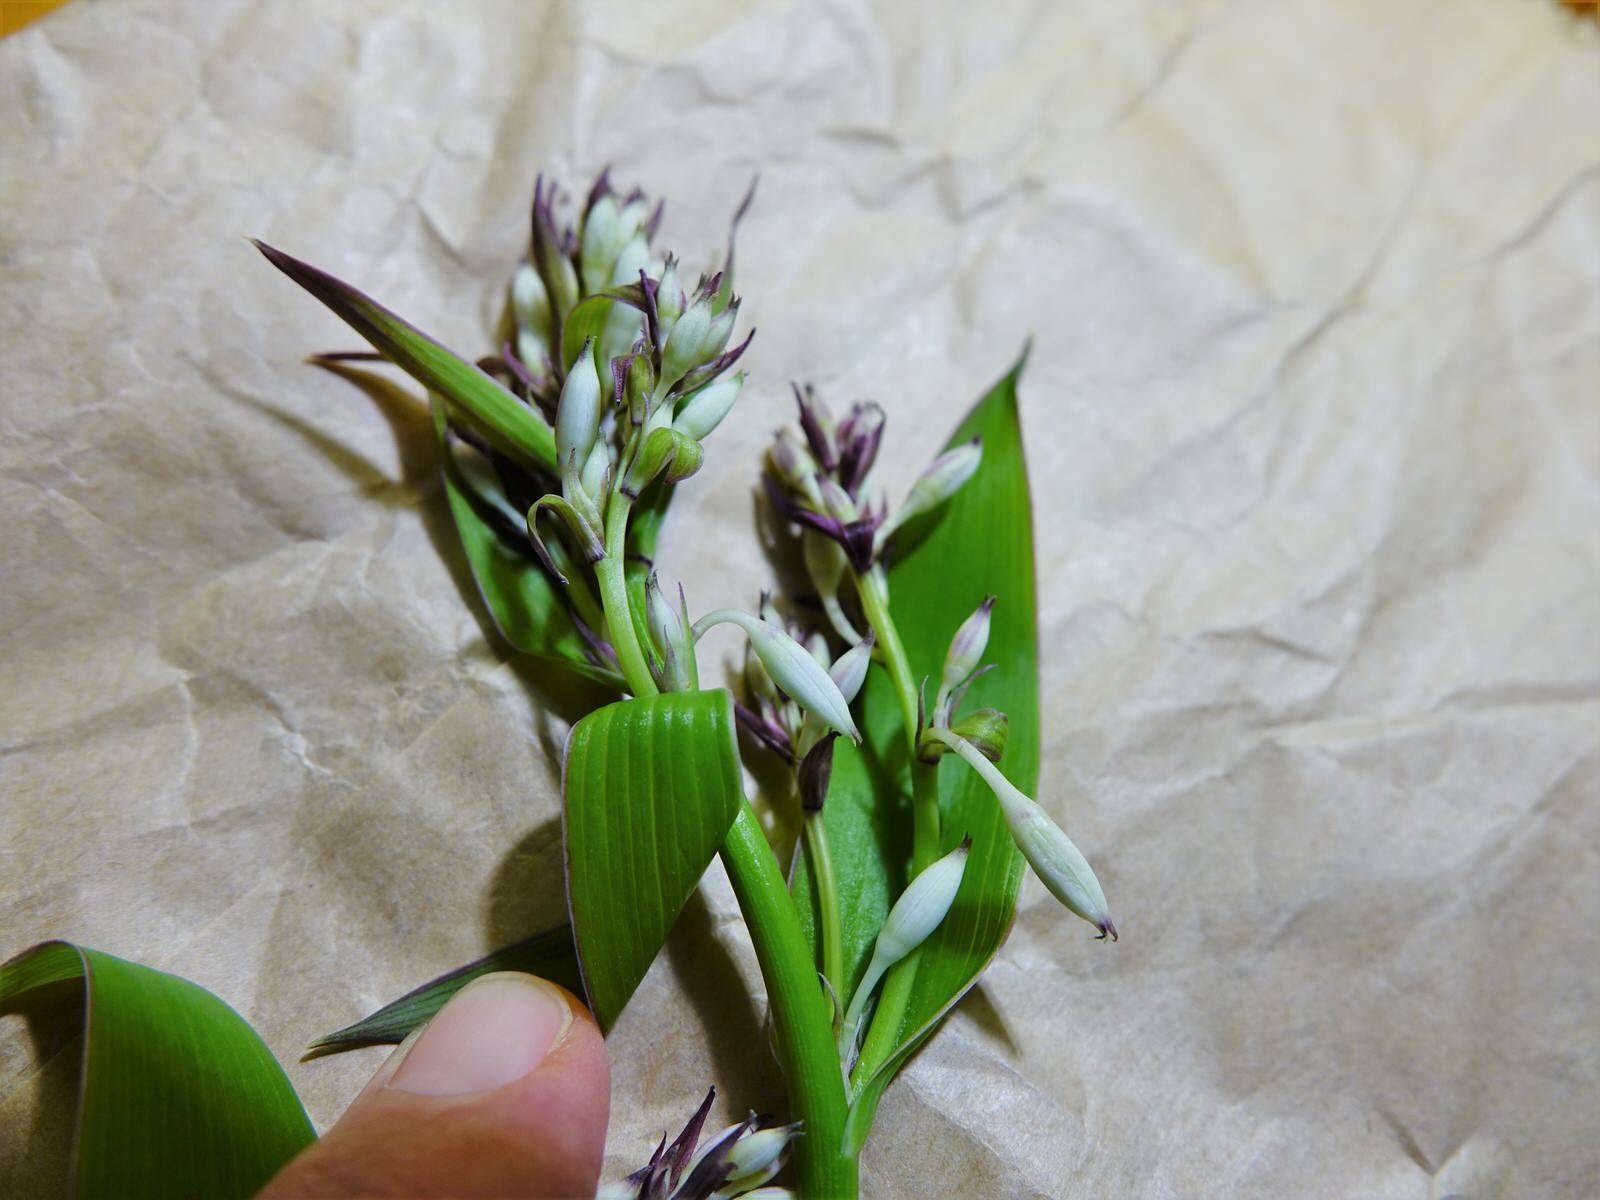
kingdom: Plantae
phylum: Tracheophyta
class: Liliopsida
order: Asparagales
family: Asparagaceae
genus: Arthropodium
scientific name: Arthropodium cirratum
